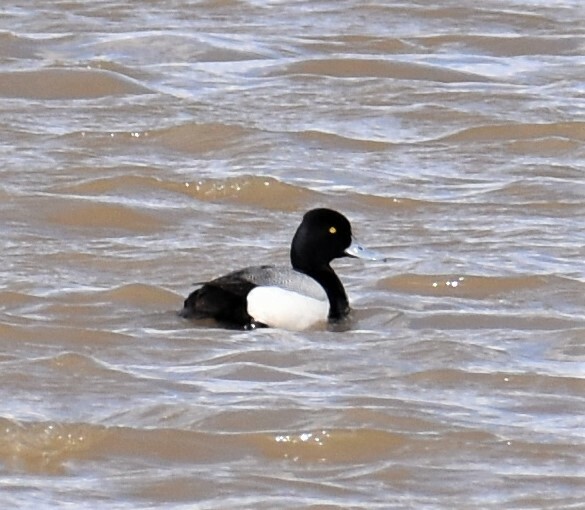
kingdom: Animalia
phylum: Chordata
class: Aves
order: Anseriformes
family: Anatidae
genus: Aythya
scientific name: Aythya affinis
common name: Lesser scaup
